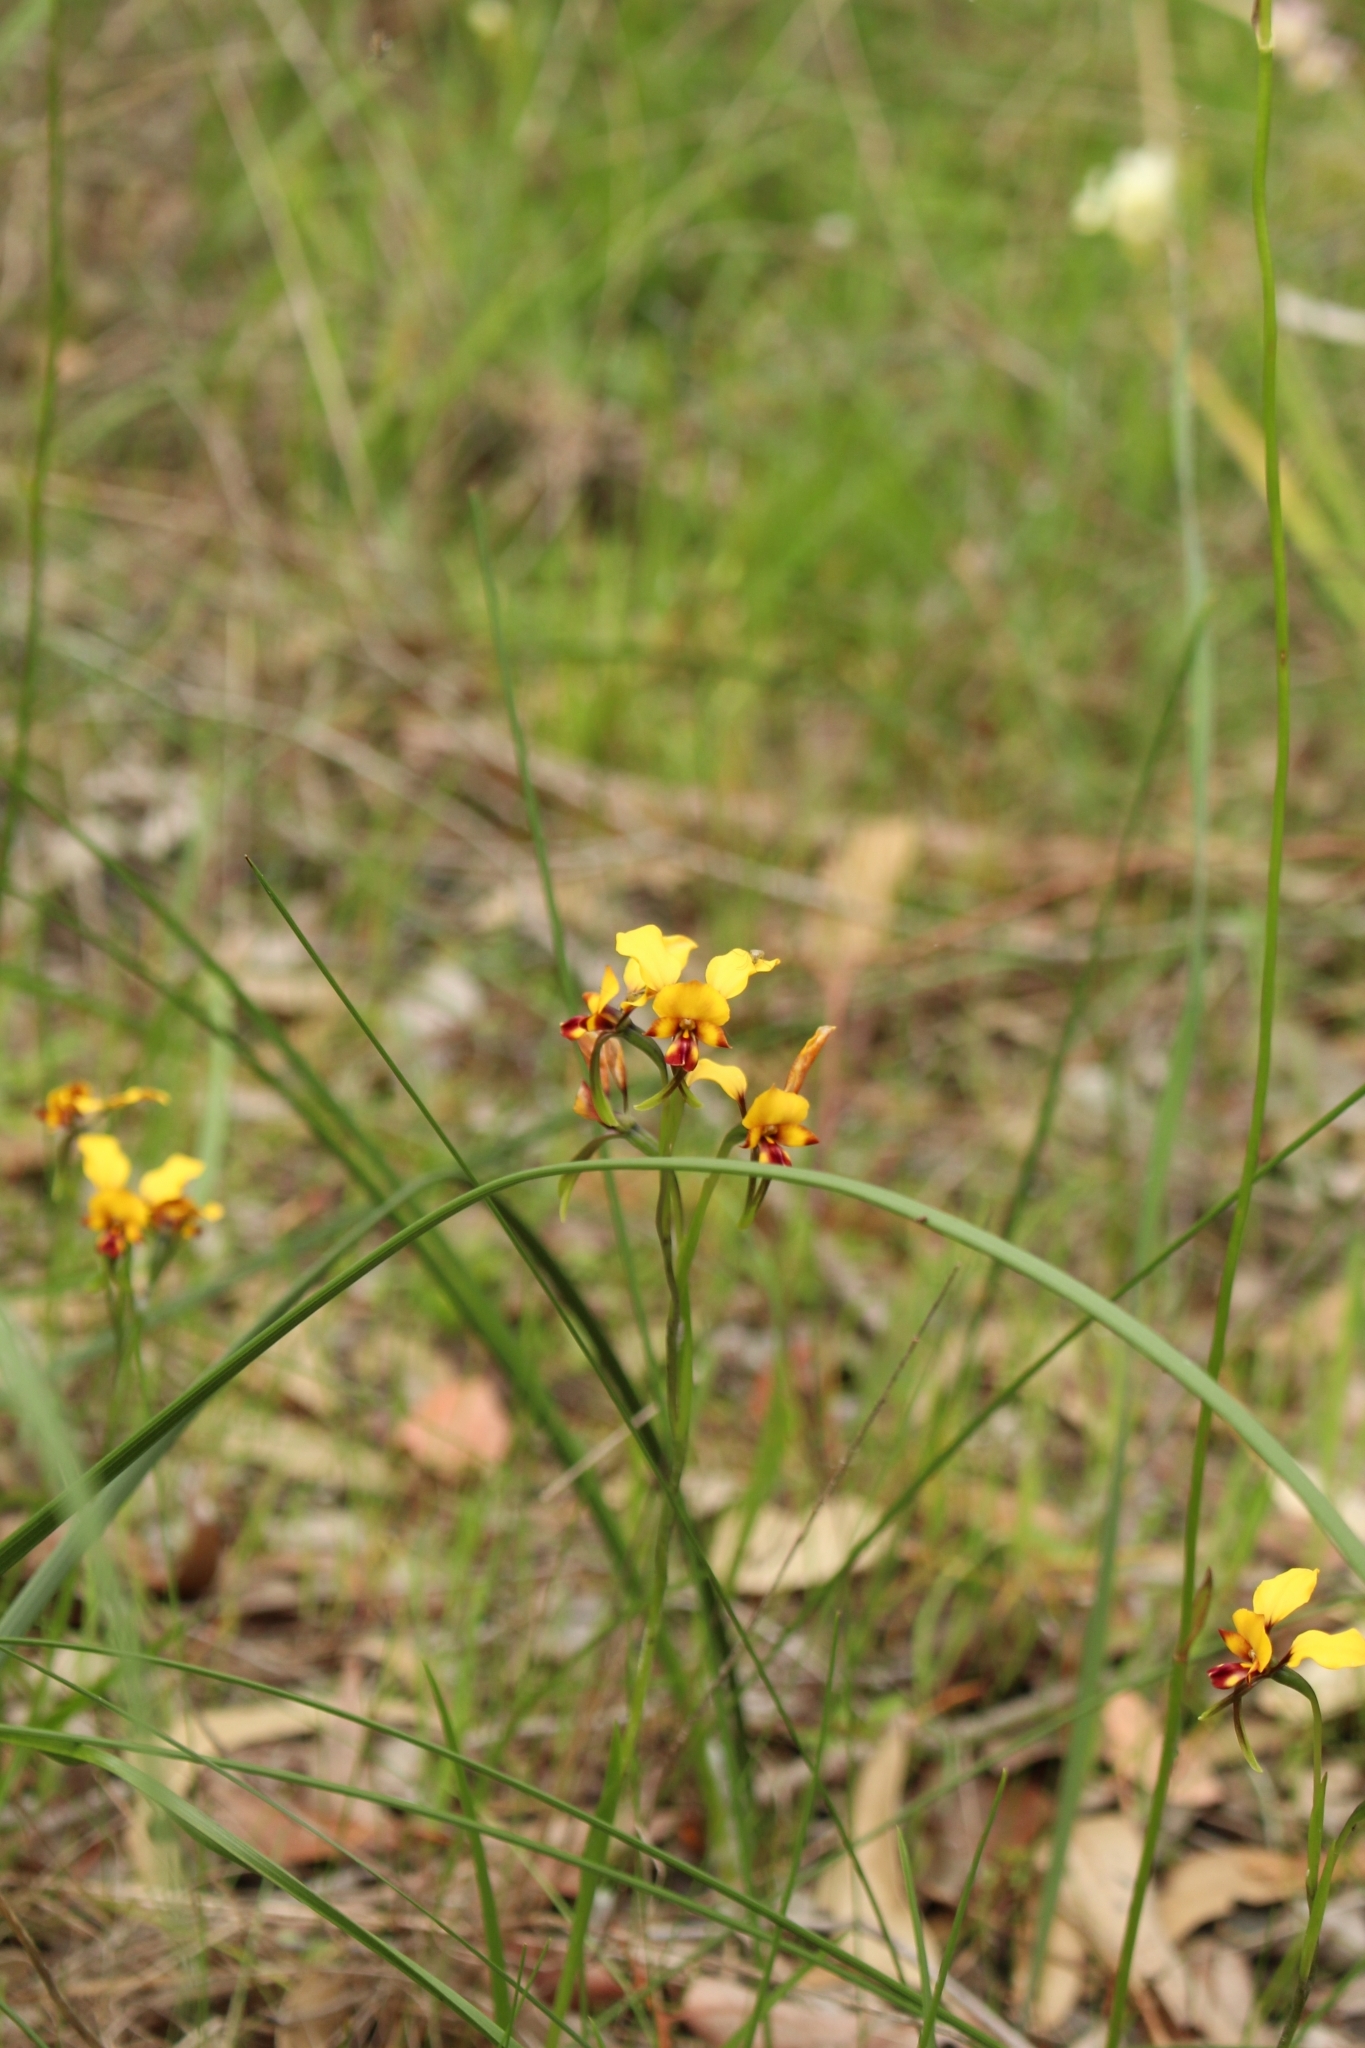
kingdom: Plantae
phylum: Tracheophyta
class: Liliopsida
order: Asparagales
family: Orchidaceae
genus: Diuris
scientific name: Diuris corymbosa
